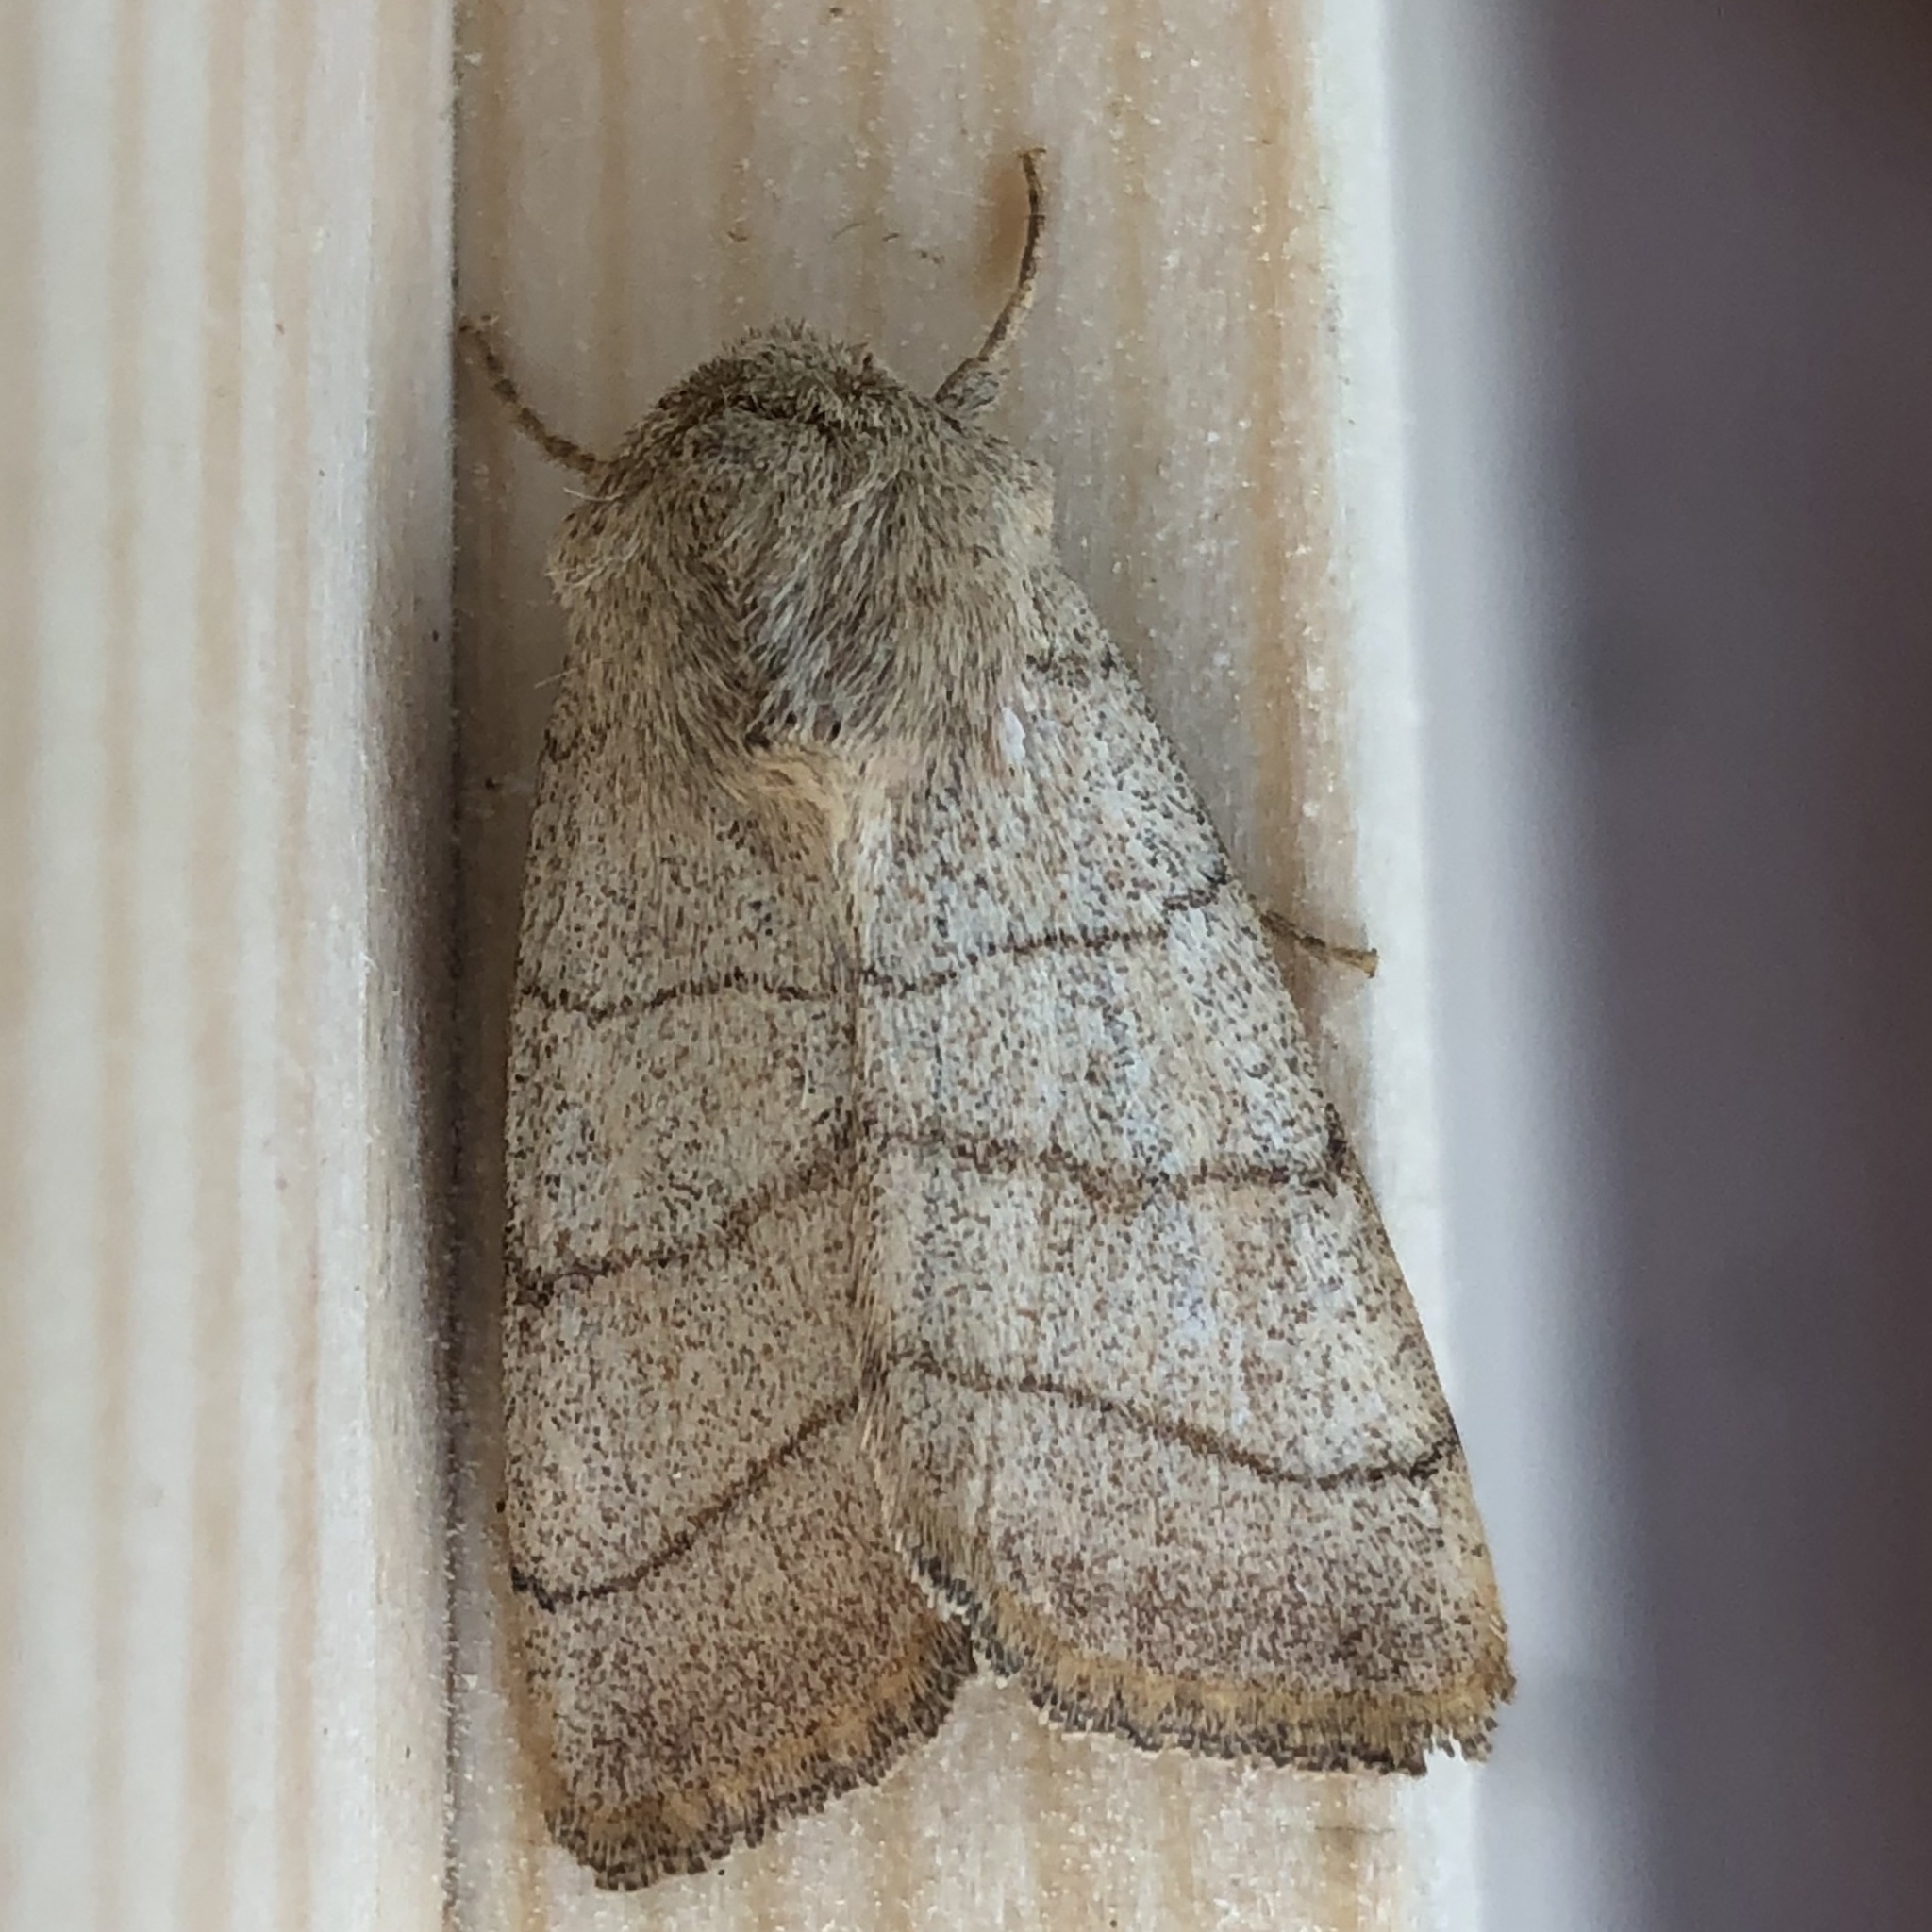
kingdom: Animalia
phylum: Arthropoda
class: Insecta
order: Lepidoptera
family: Noctuidae
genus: Charanyca
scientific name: Charanyca trigrammica
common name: Treble lines
